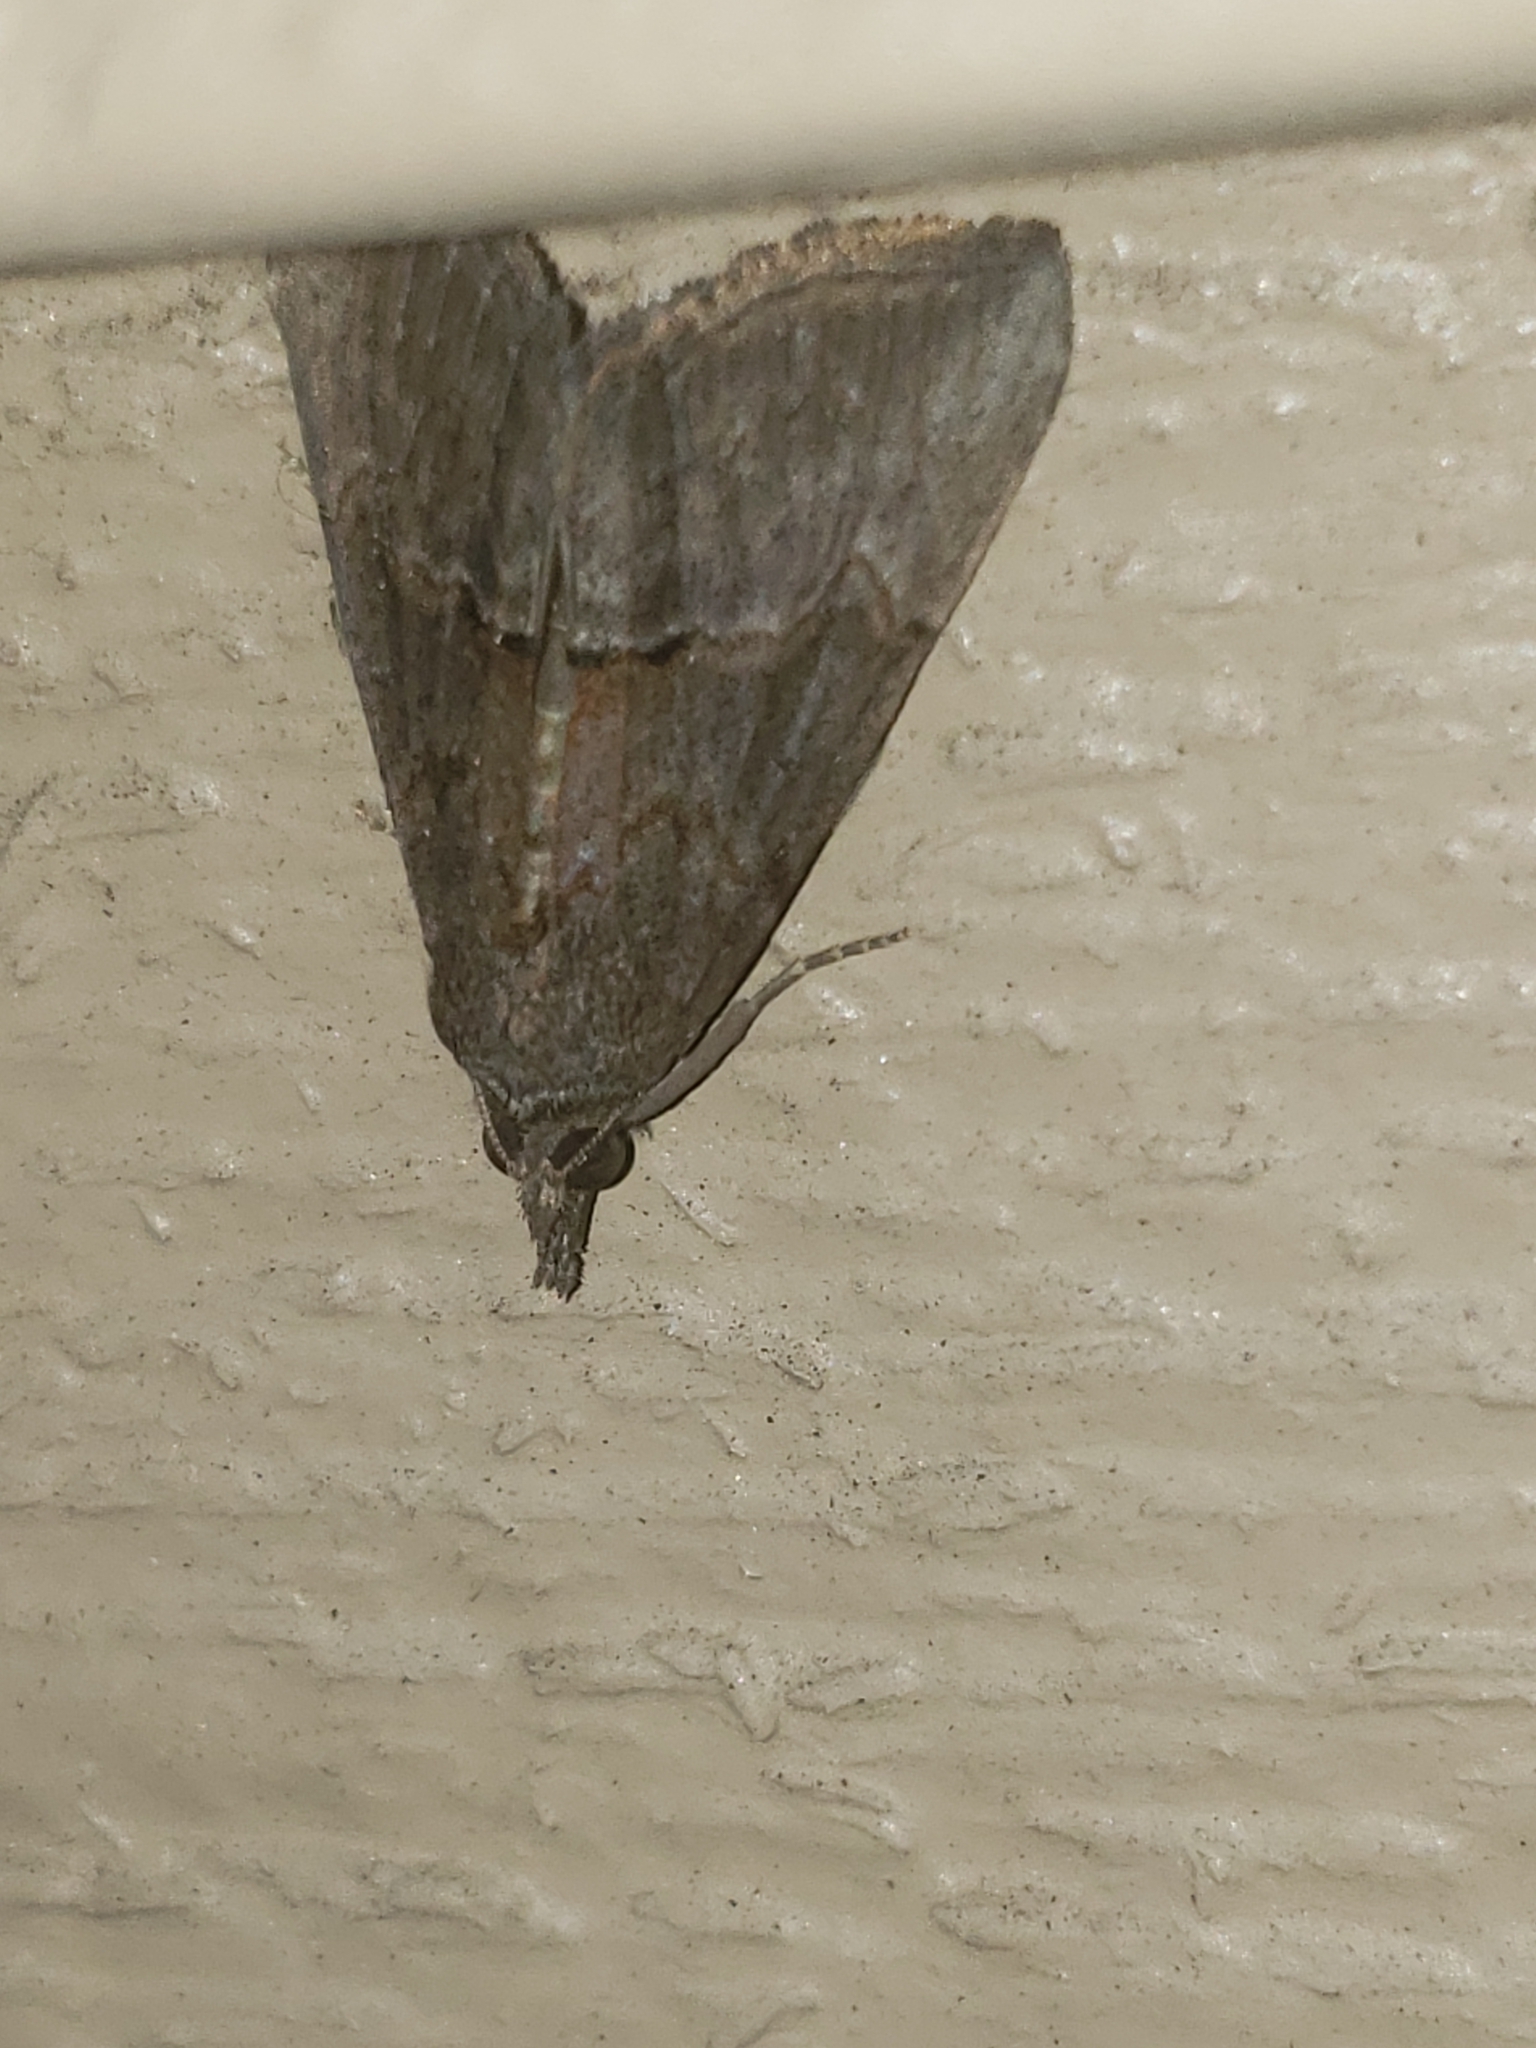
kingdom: Animalia
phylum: Arthropoda
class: Insecta
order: Lepidoptera
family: Erebidae
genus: Hypena
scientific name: Hypena scabra
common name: Green cloverworm
